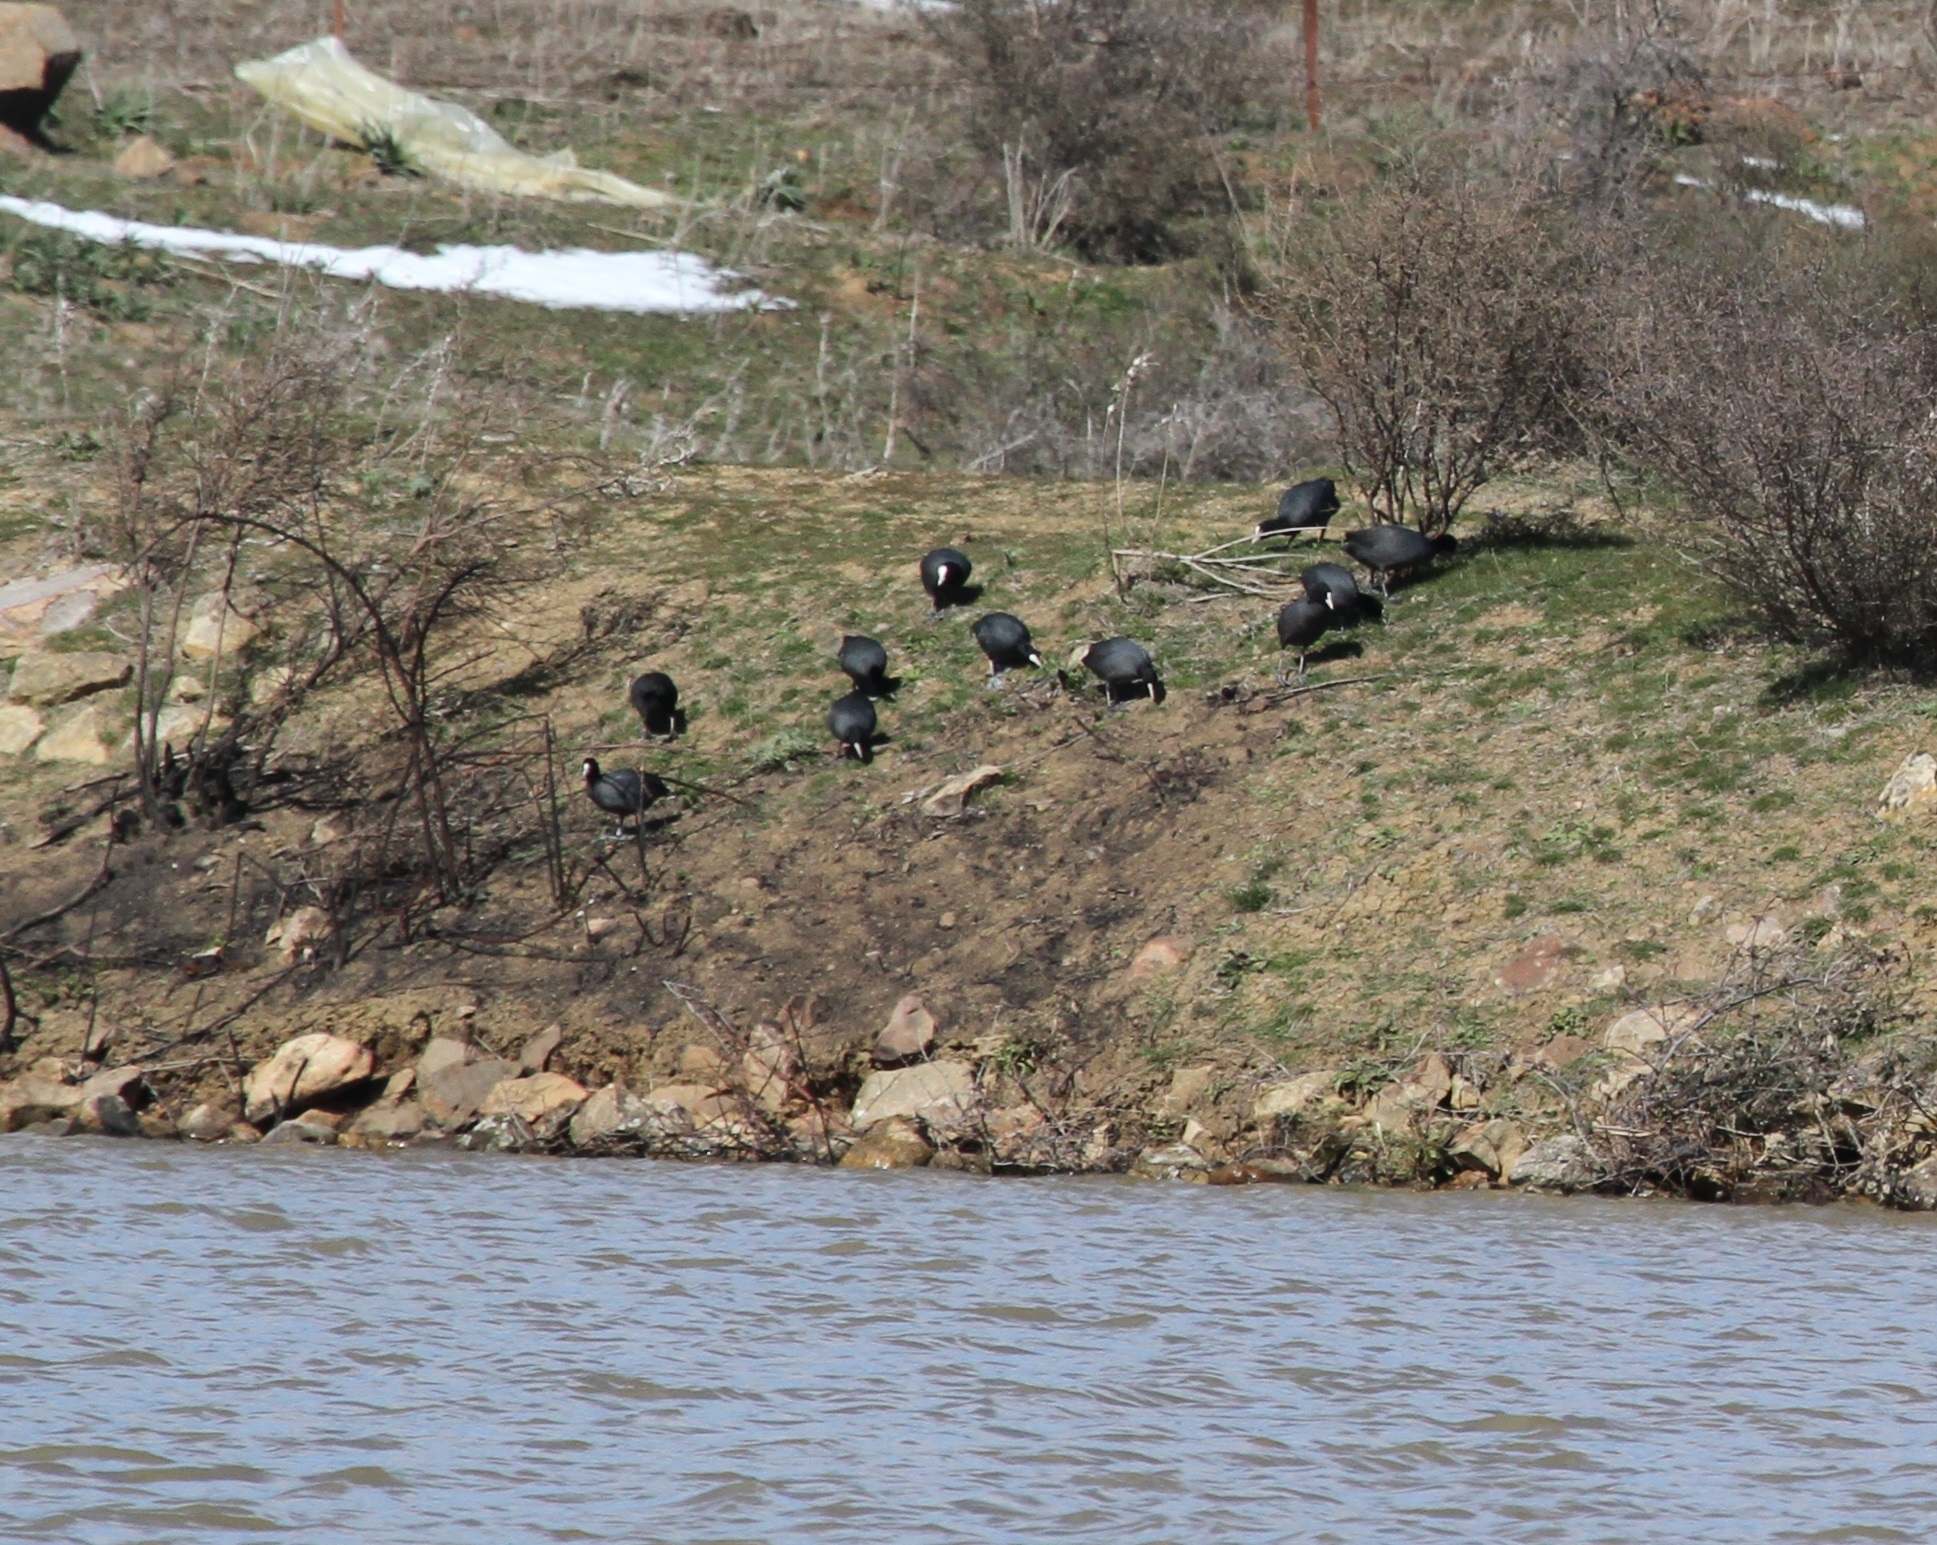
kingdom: Animalia
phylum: Chordata
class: Aves
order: Gruiformes
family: Rallidae
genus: Fulica
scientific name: Fulica atra
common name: Eurasian coot
